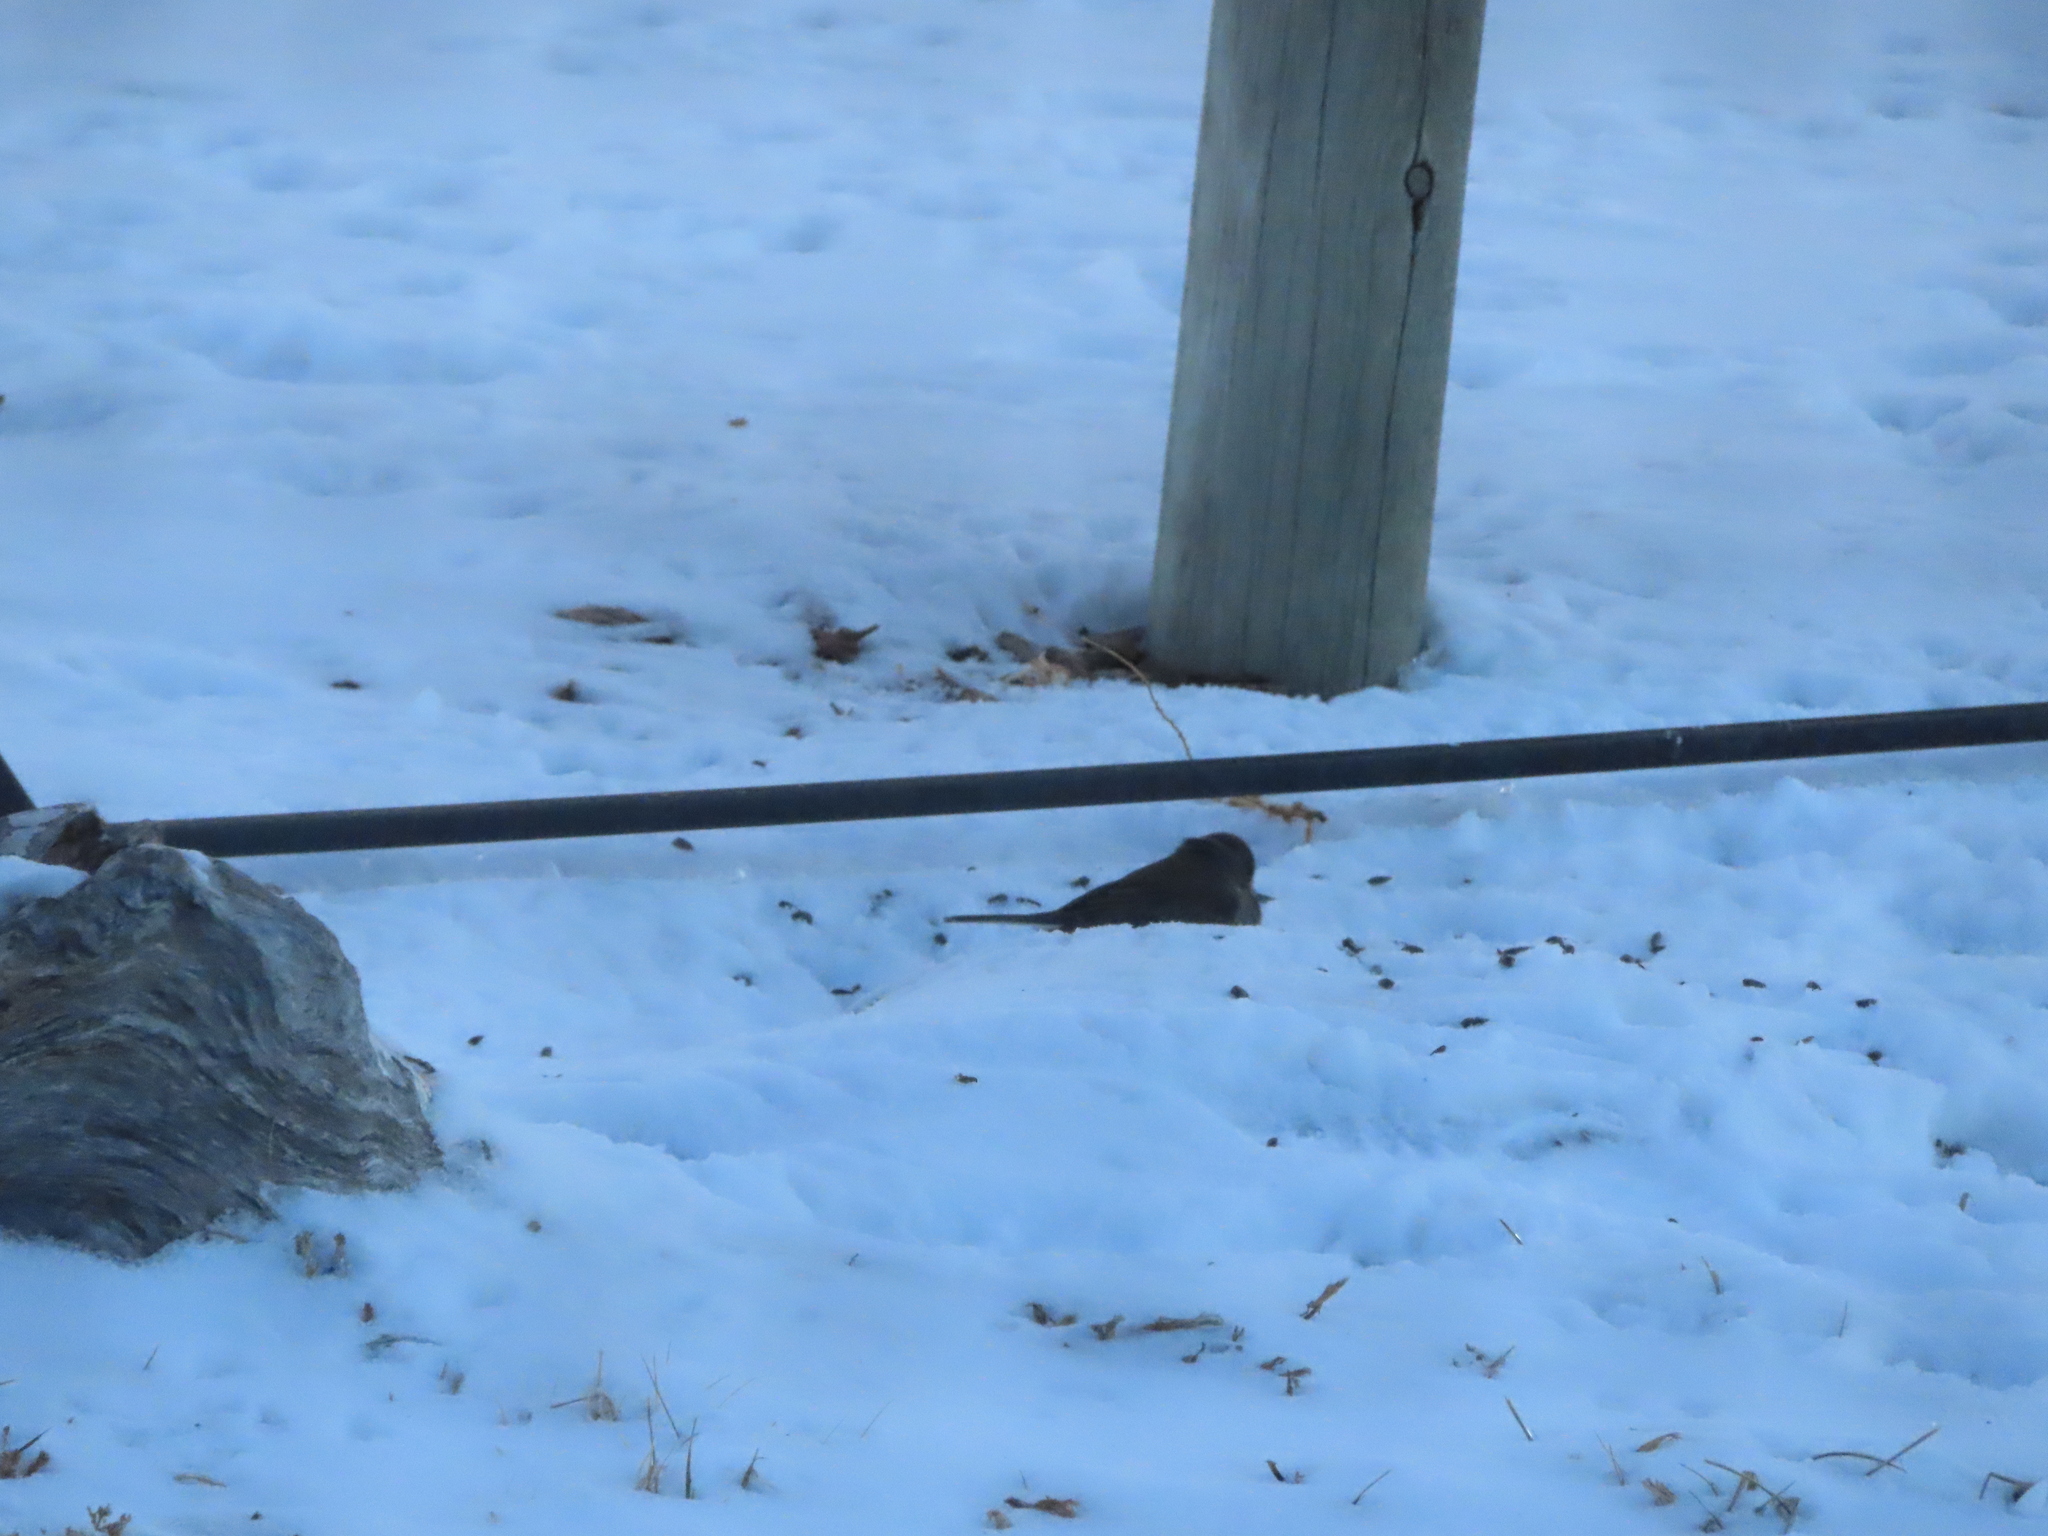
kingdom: Animalia
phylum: Chordata
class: Aves
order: Passeriformes
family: Passerellidae
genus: Junco
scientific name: Junco hyemalis
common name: Dark-eyed junco
